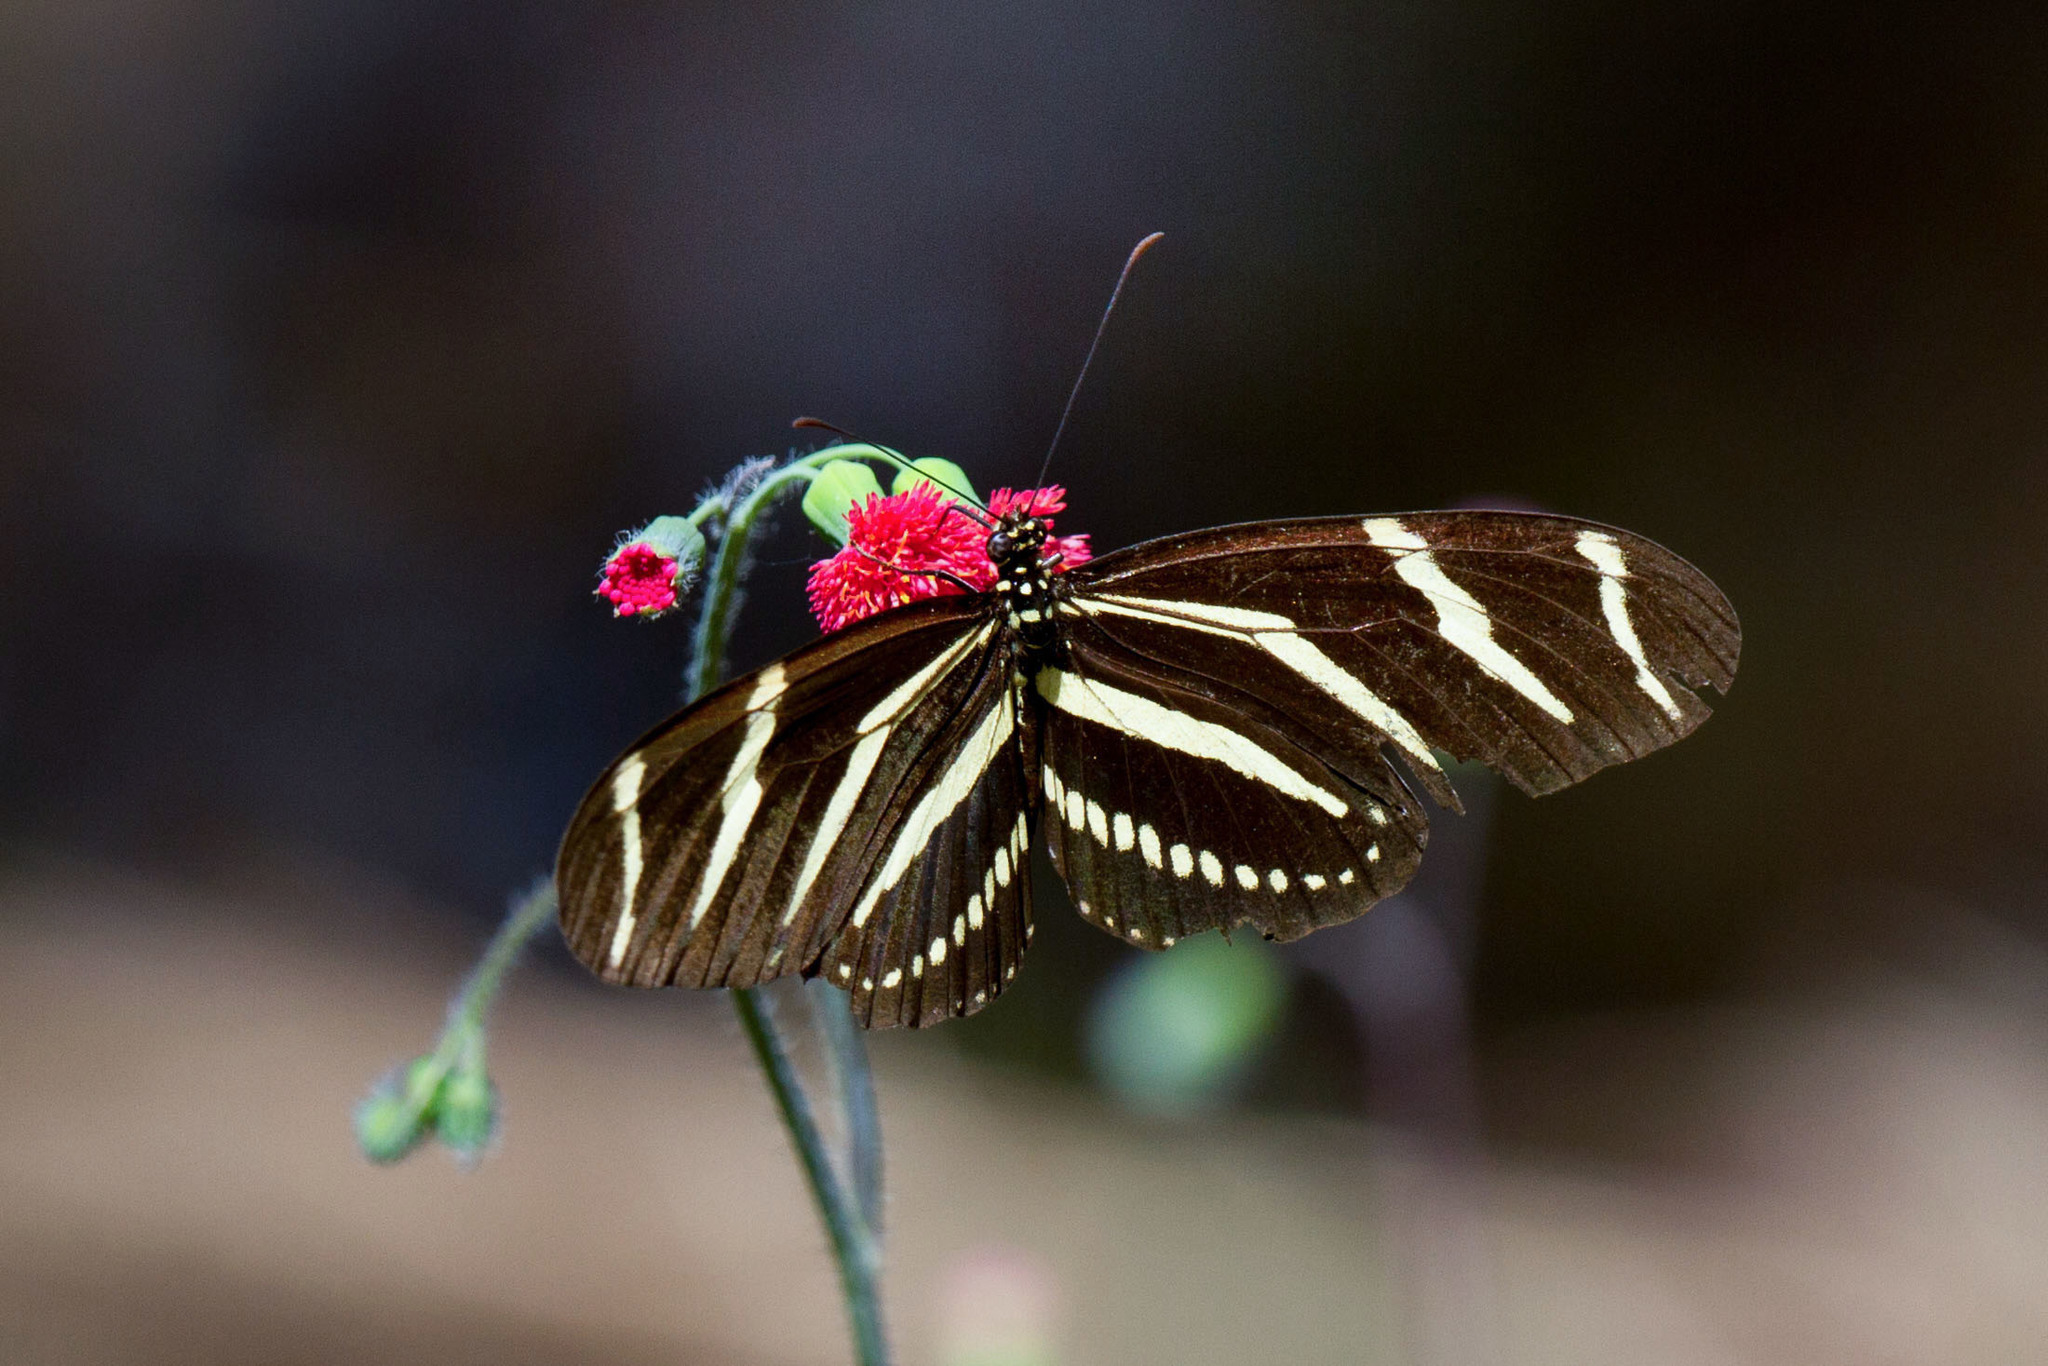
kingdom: Animalia
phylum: Arthropoda
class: Insecta
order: Lepidoptera
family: Nymphalidae
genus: Heliconius
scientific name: Heliconius charithonia
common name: Zebra long wing
